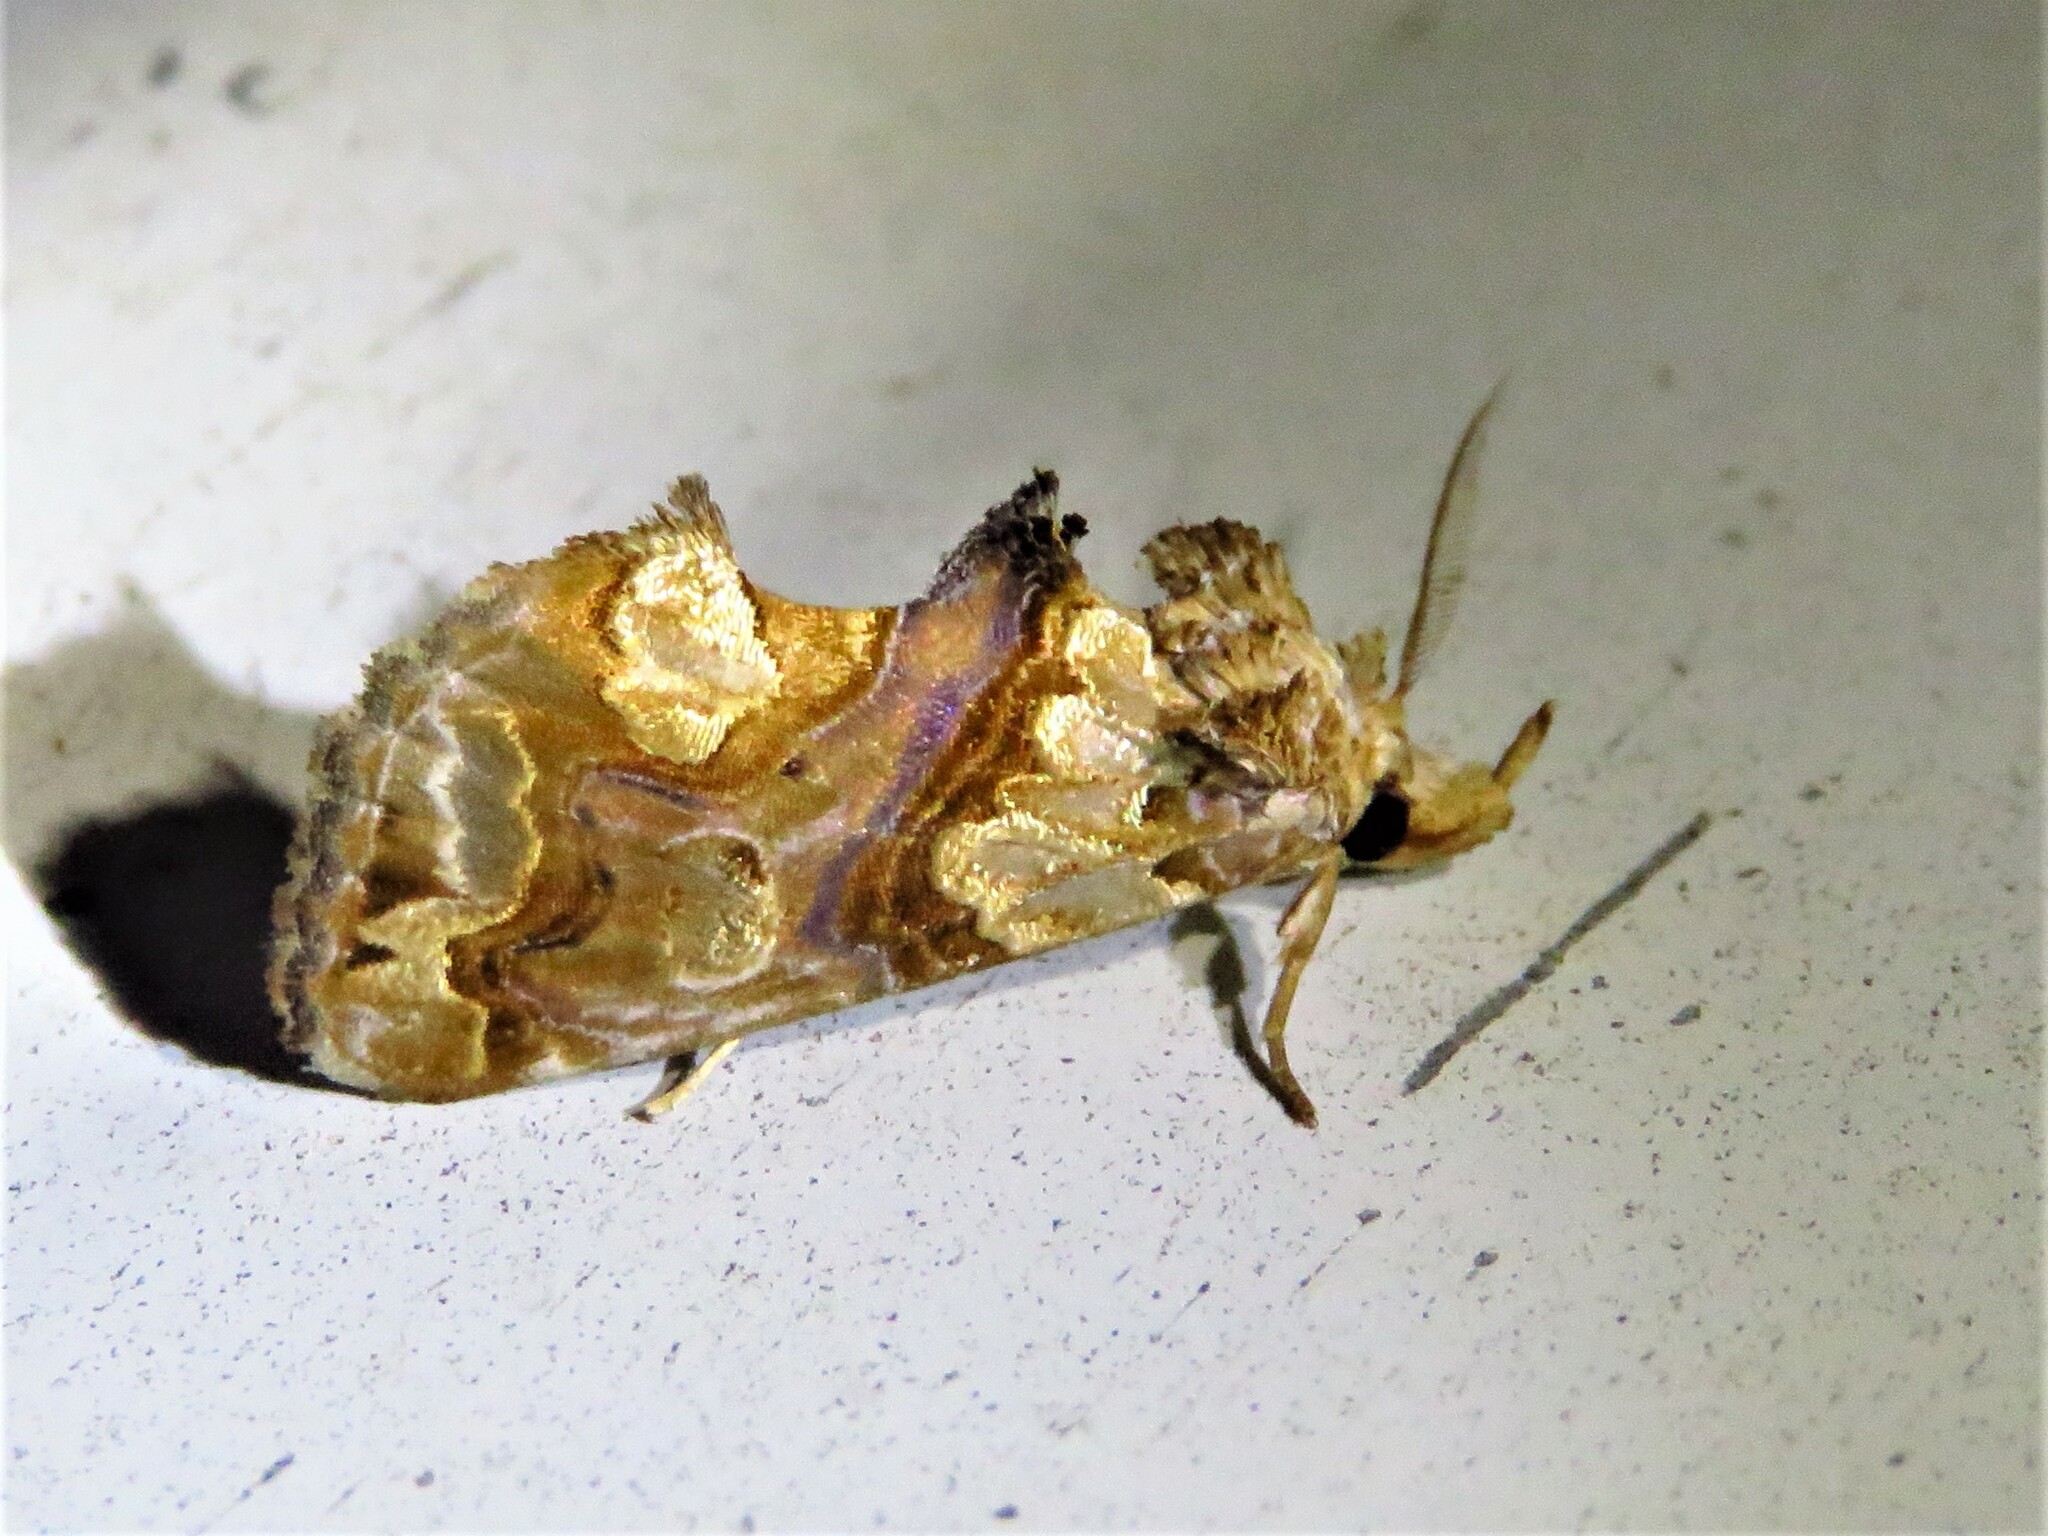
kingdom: Animalia
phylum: Arthropoda
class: Insecta
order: Lepidoptera
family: Erebidae
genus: Plusiodonta
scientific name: Plusiodonta compressipalpis
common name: Moonseed moth
